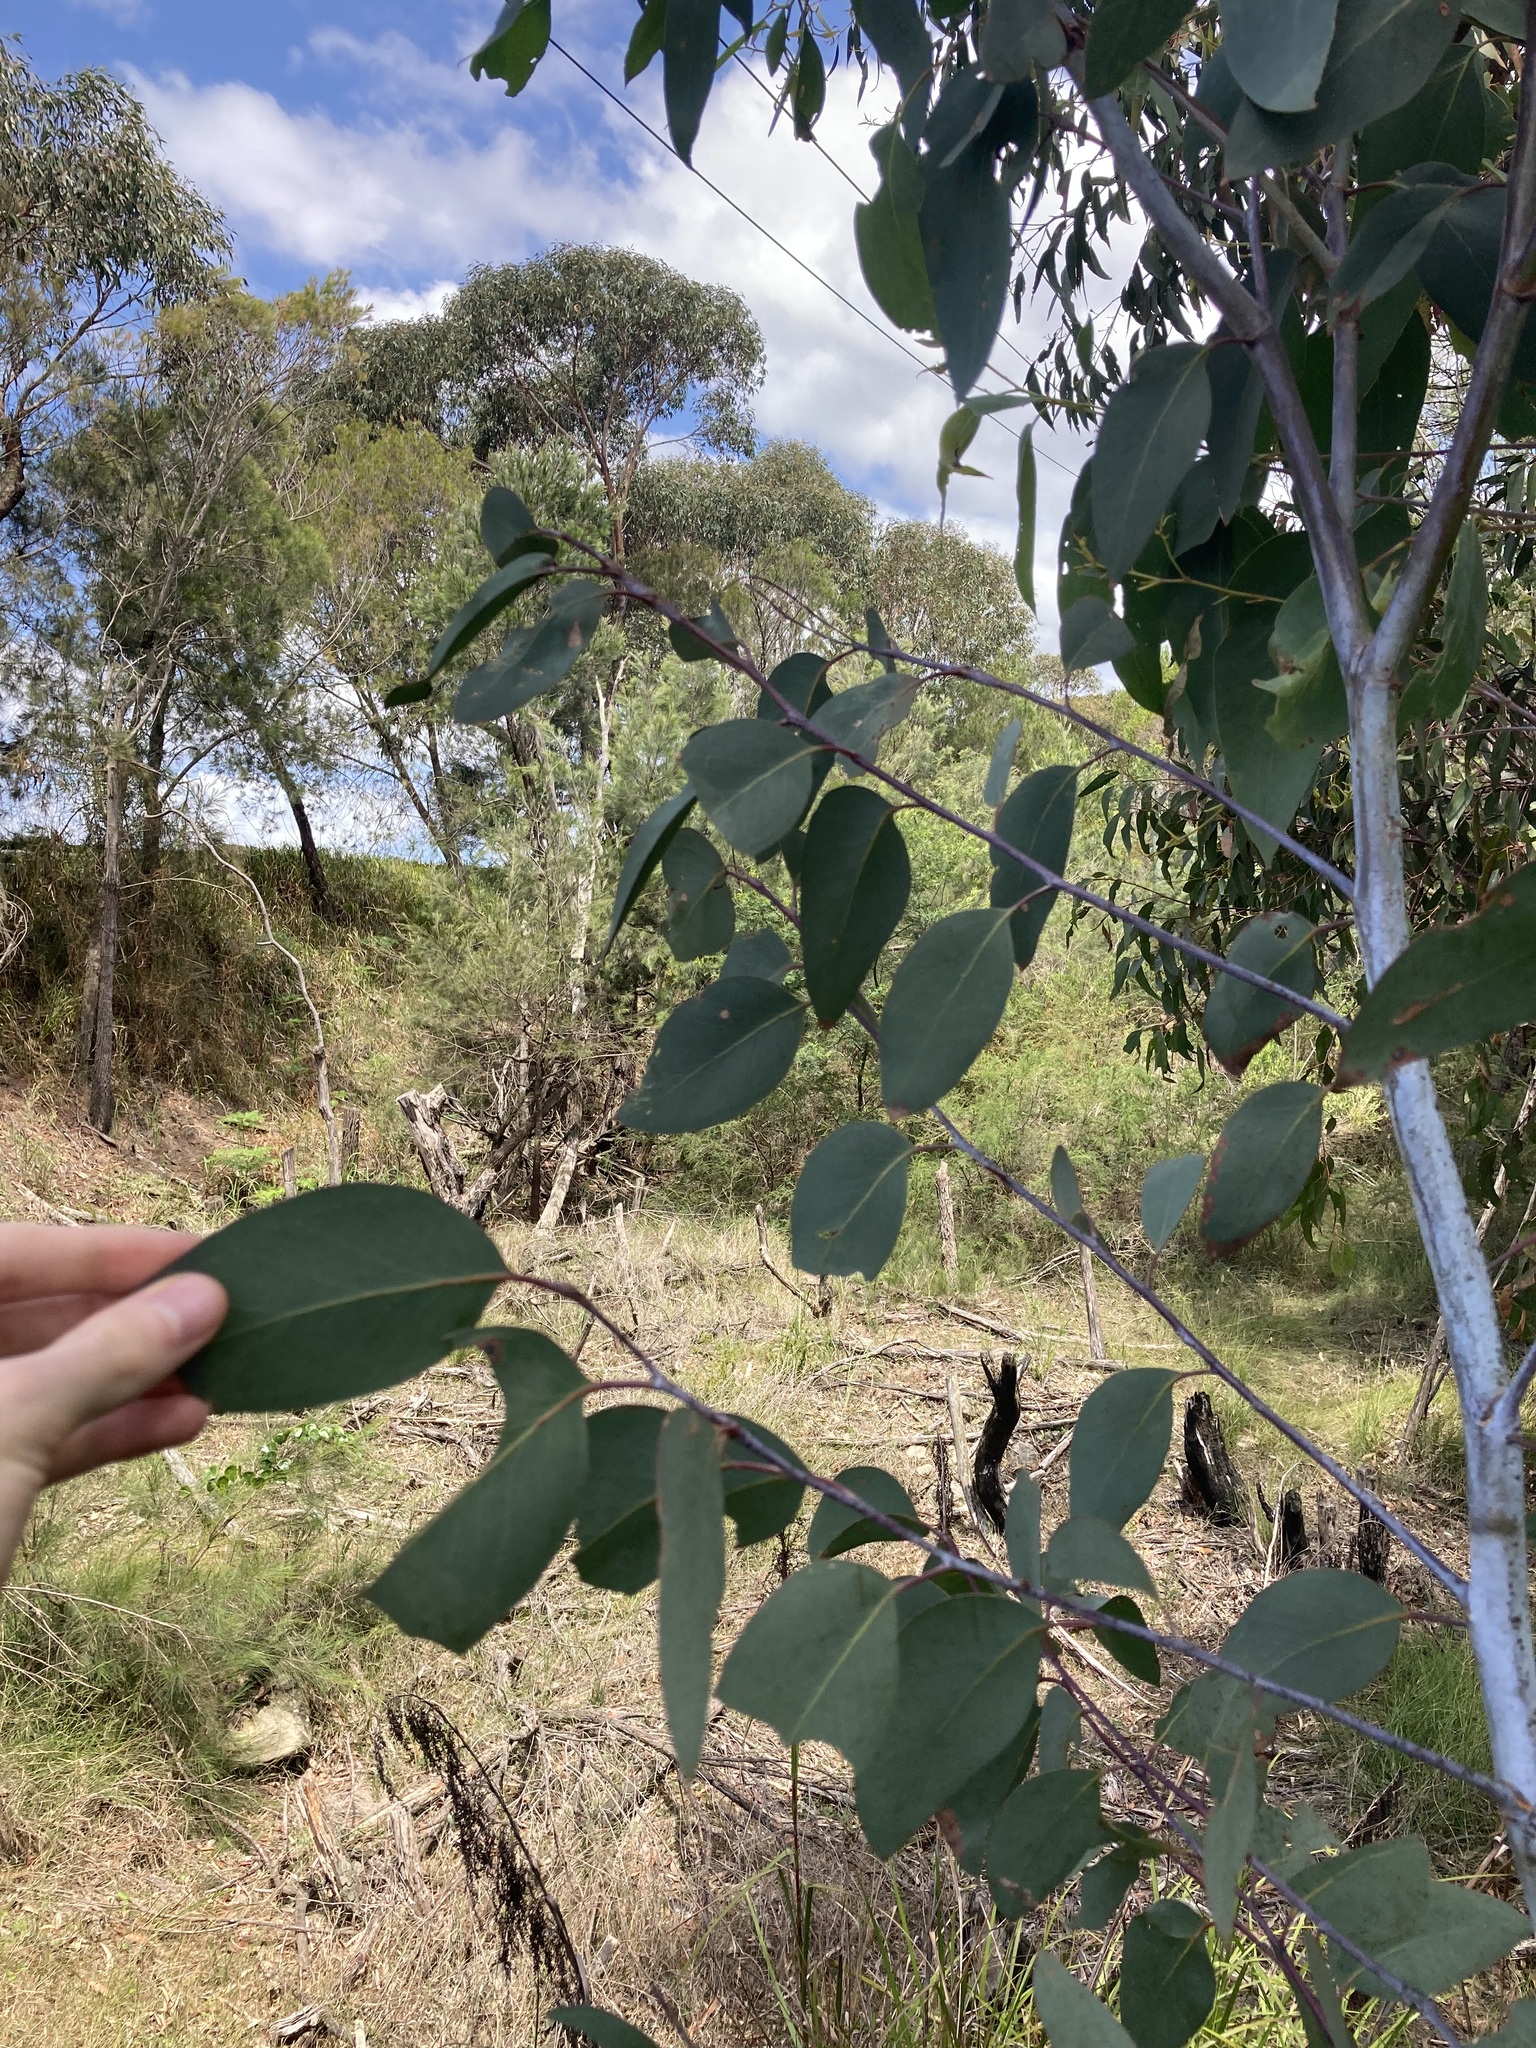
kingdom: Plantae
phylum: Tracheophyta
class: Magnoliopsida
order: Myrtales
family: Myrtaceae
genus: Eucalyptus
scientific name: Eucalyptus sieberi
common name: Black-ash
